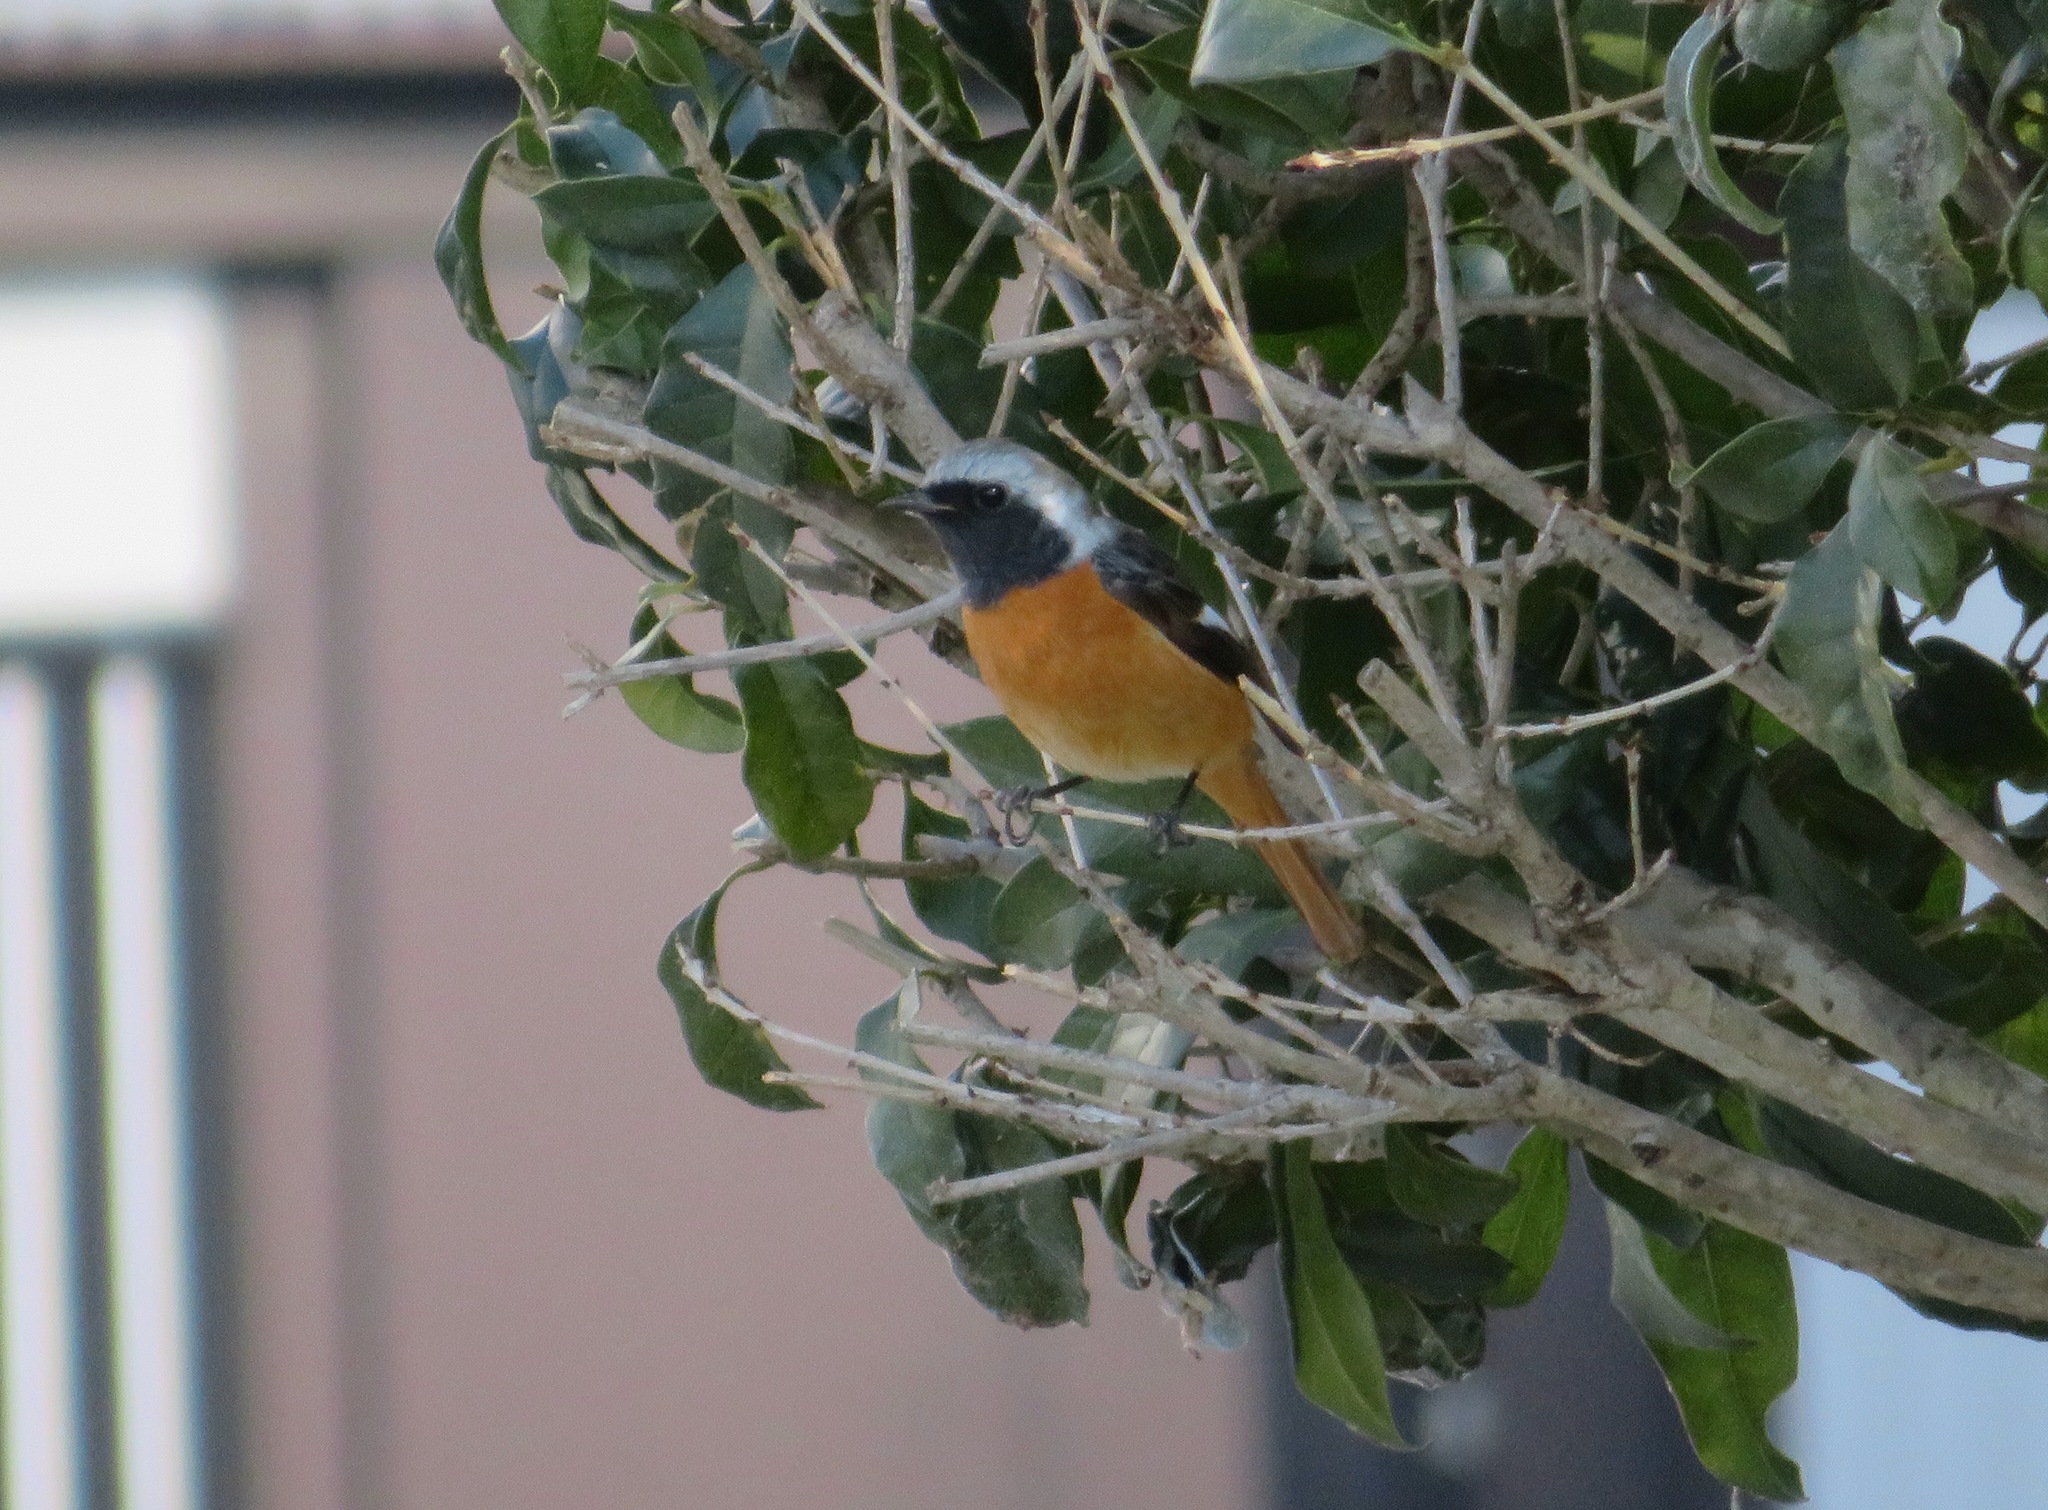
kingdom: Animalia
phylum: Chordata
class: Aves
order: Passeriformes
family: Muscicapidae
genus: Phoenicurus
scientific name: Phoenicurus auroreus
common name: Daurian redstart
